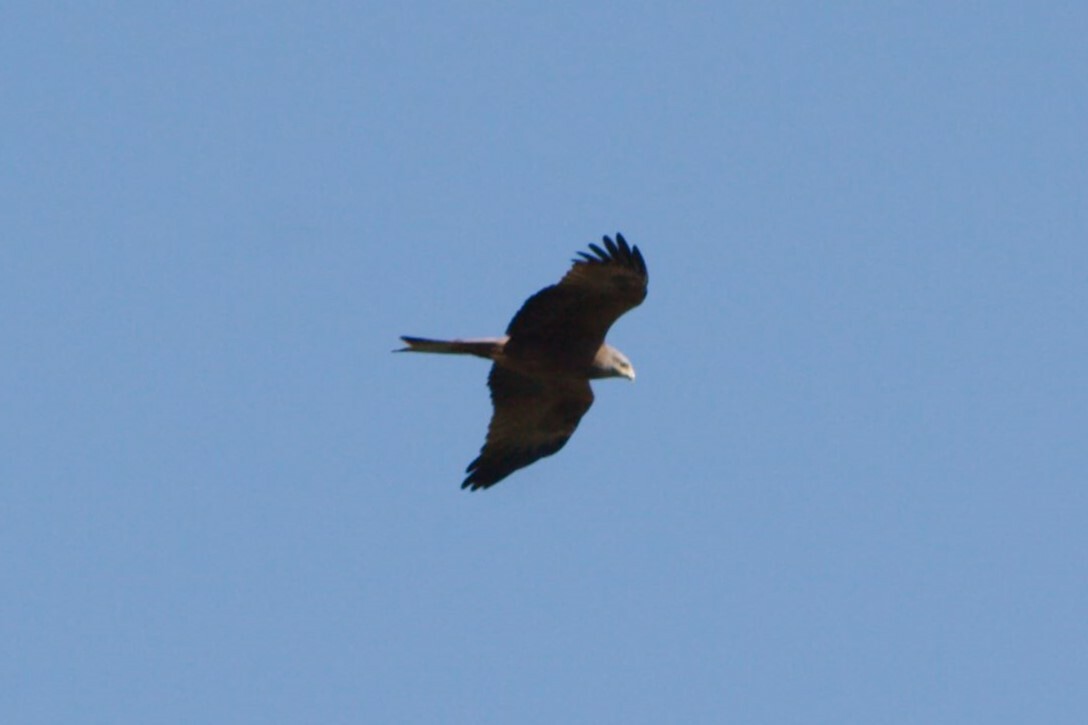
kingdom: Animalia
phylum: Chordata
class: Aves
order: Accipitriformes
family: Accipitridae
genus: Milvus
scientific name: Milvus migrans
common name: Black kite
